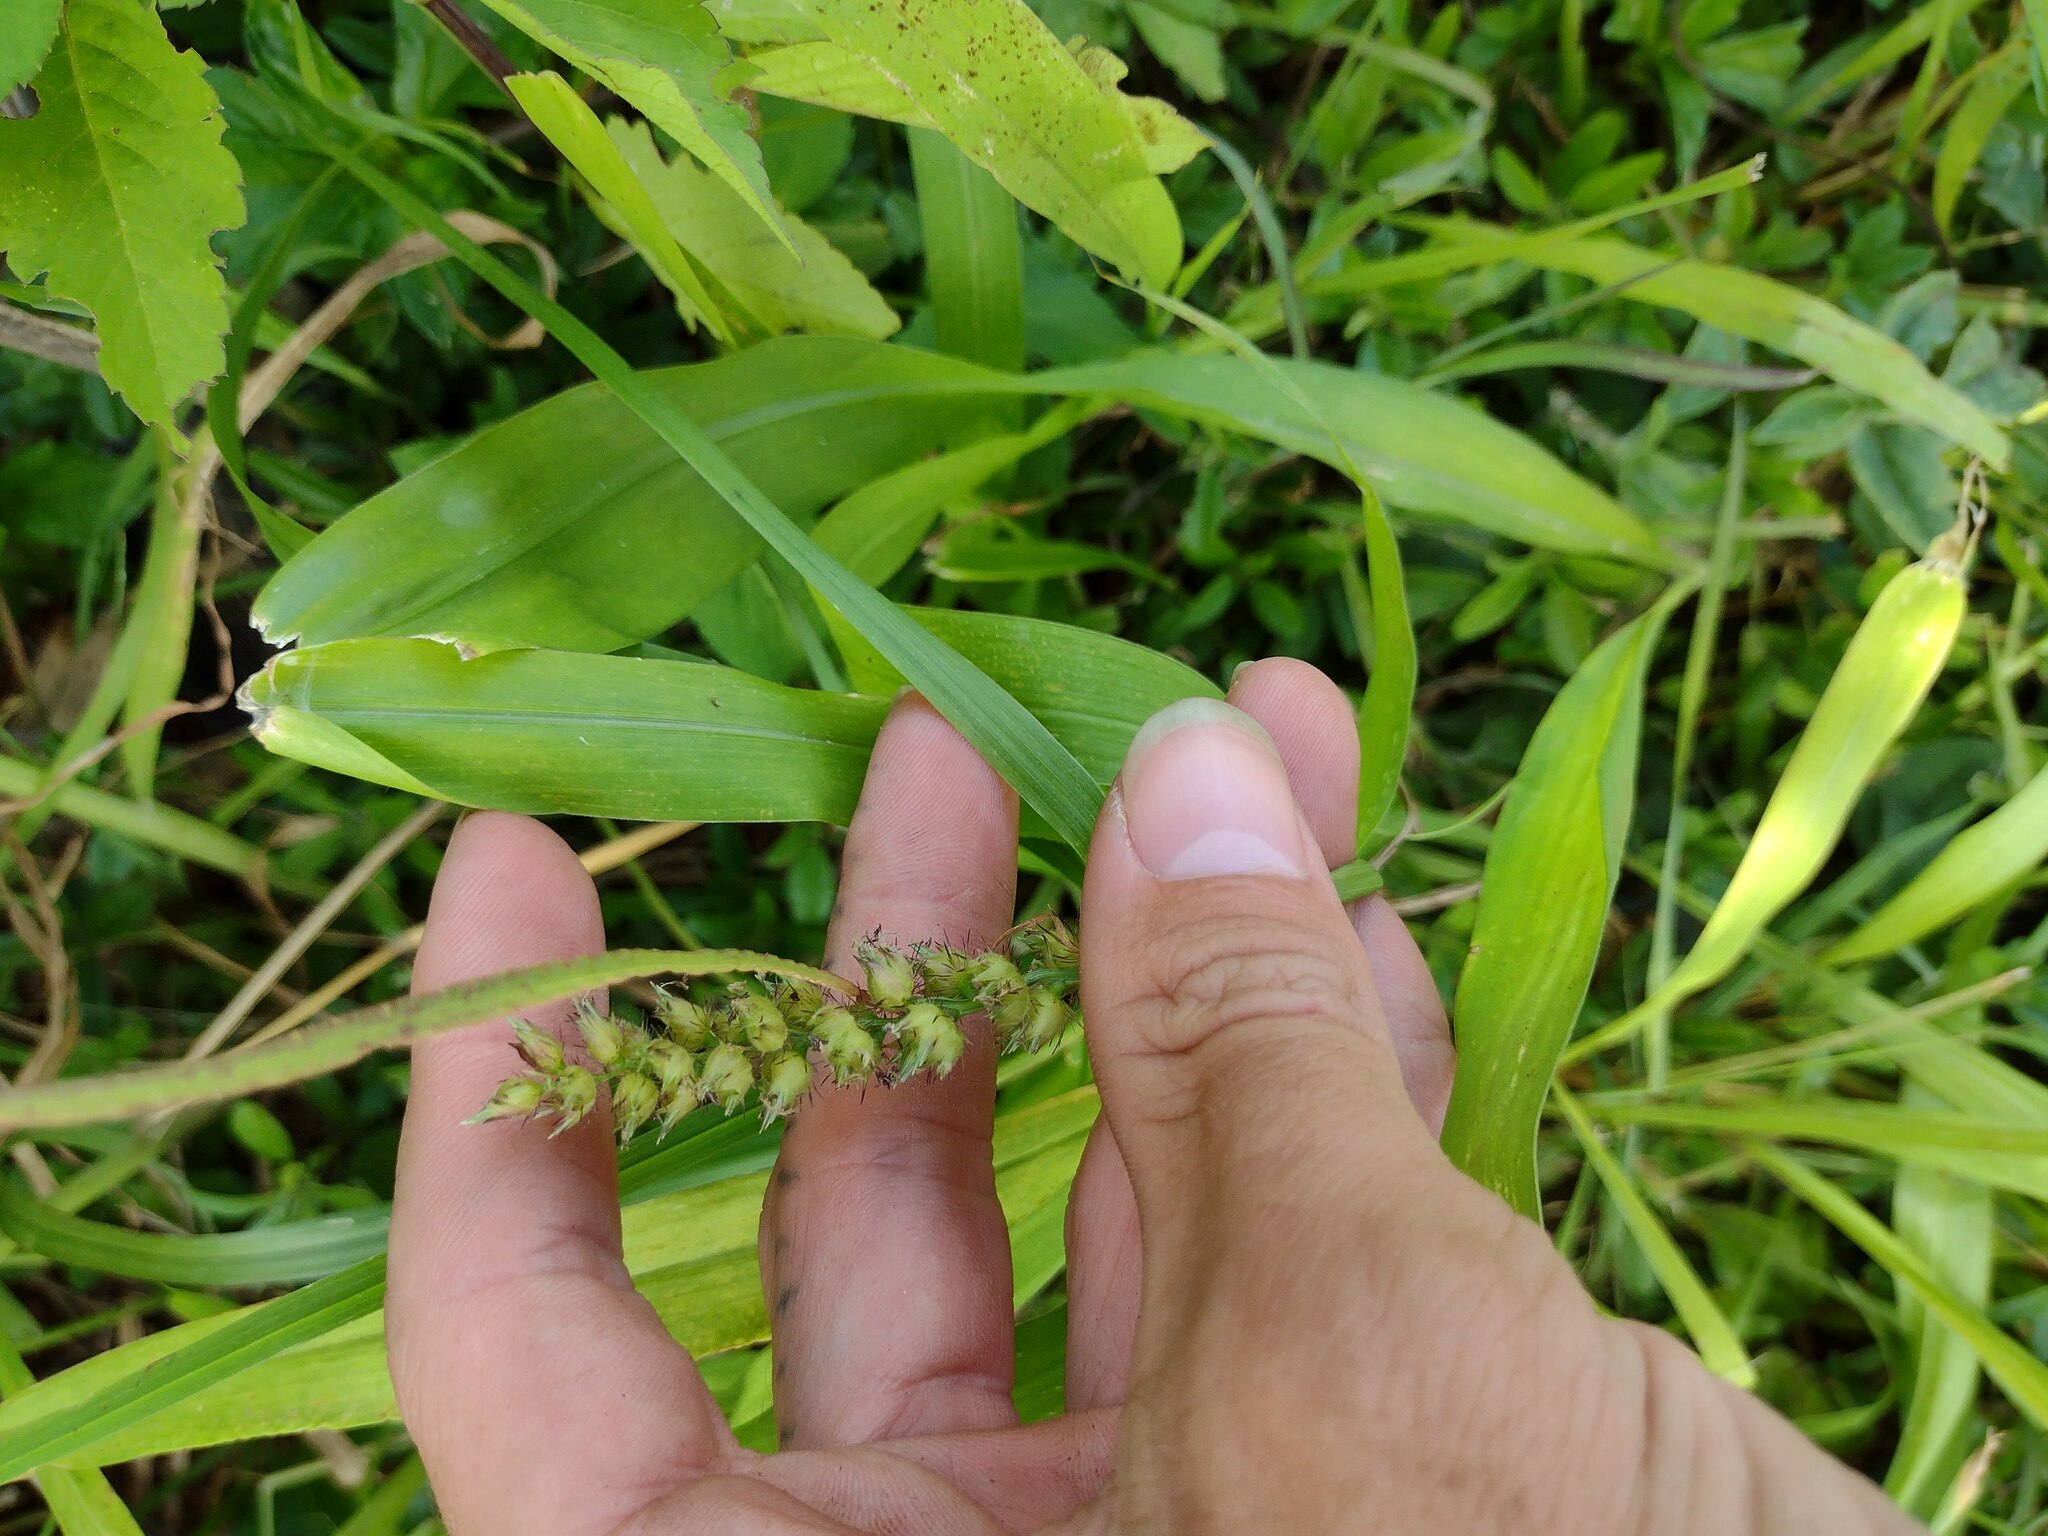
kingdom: Plantae
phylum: Tracheophyta
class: Liliopsida
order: Poales
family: Poaceae
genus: Cenchrus
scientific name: Cenchrus echinatus
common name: Southern sandbur
